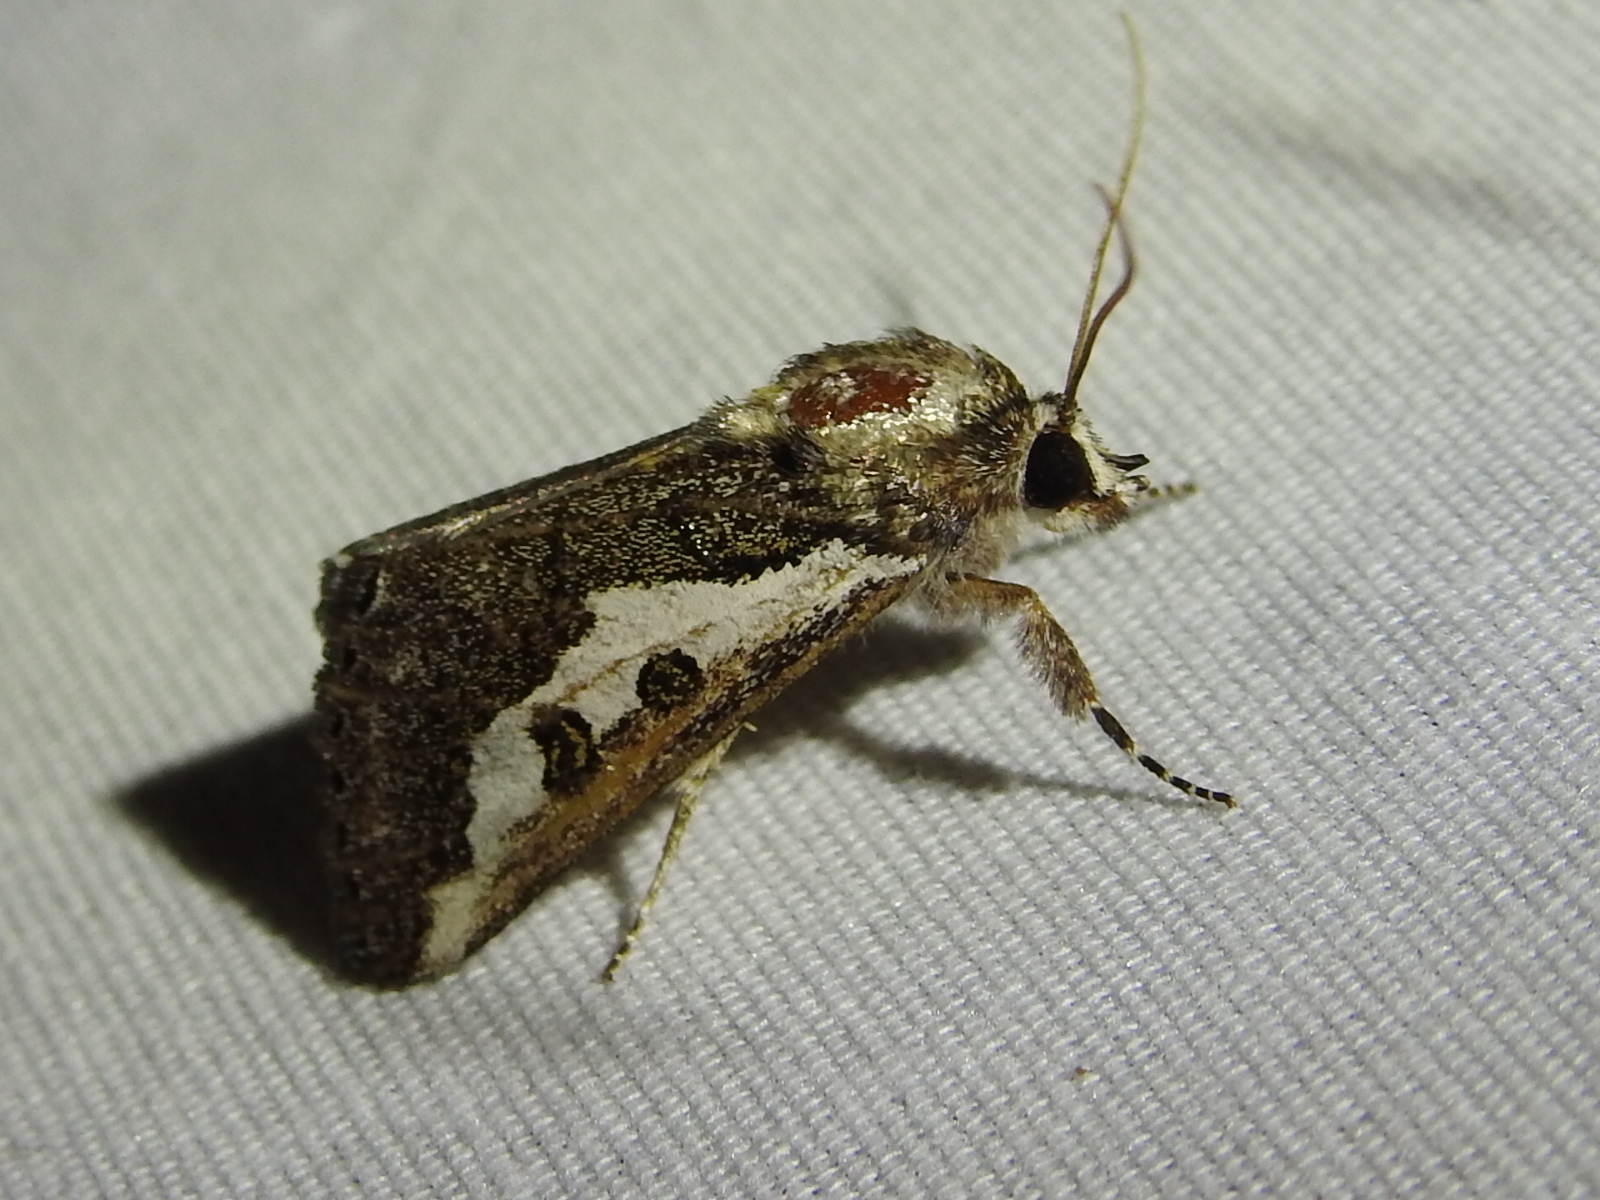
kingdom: Animalia
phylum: Arthropoda
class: Insecta
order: Lepidoptera
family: Noctuidae
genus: Euscirrhopterus
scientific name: Euscirrhopterus gloveri
